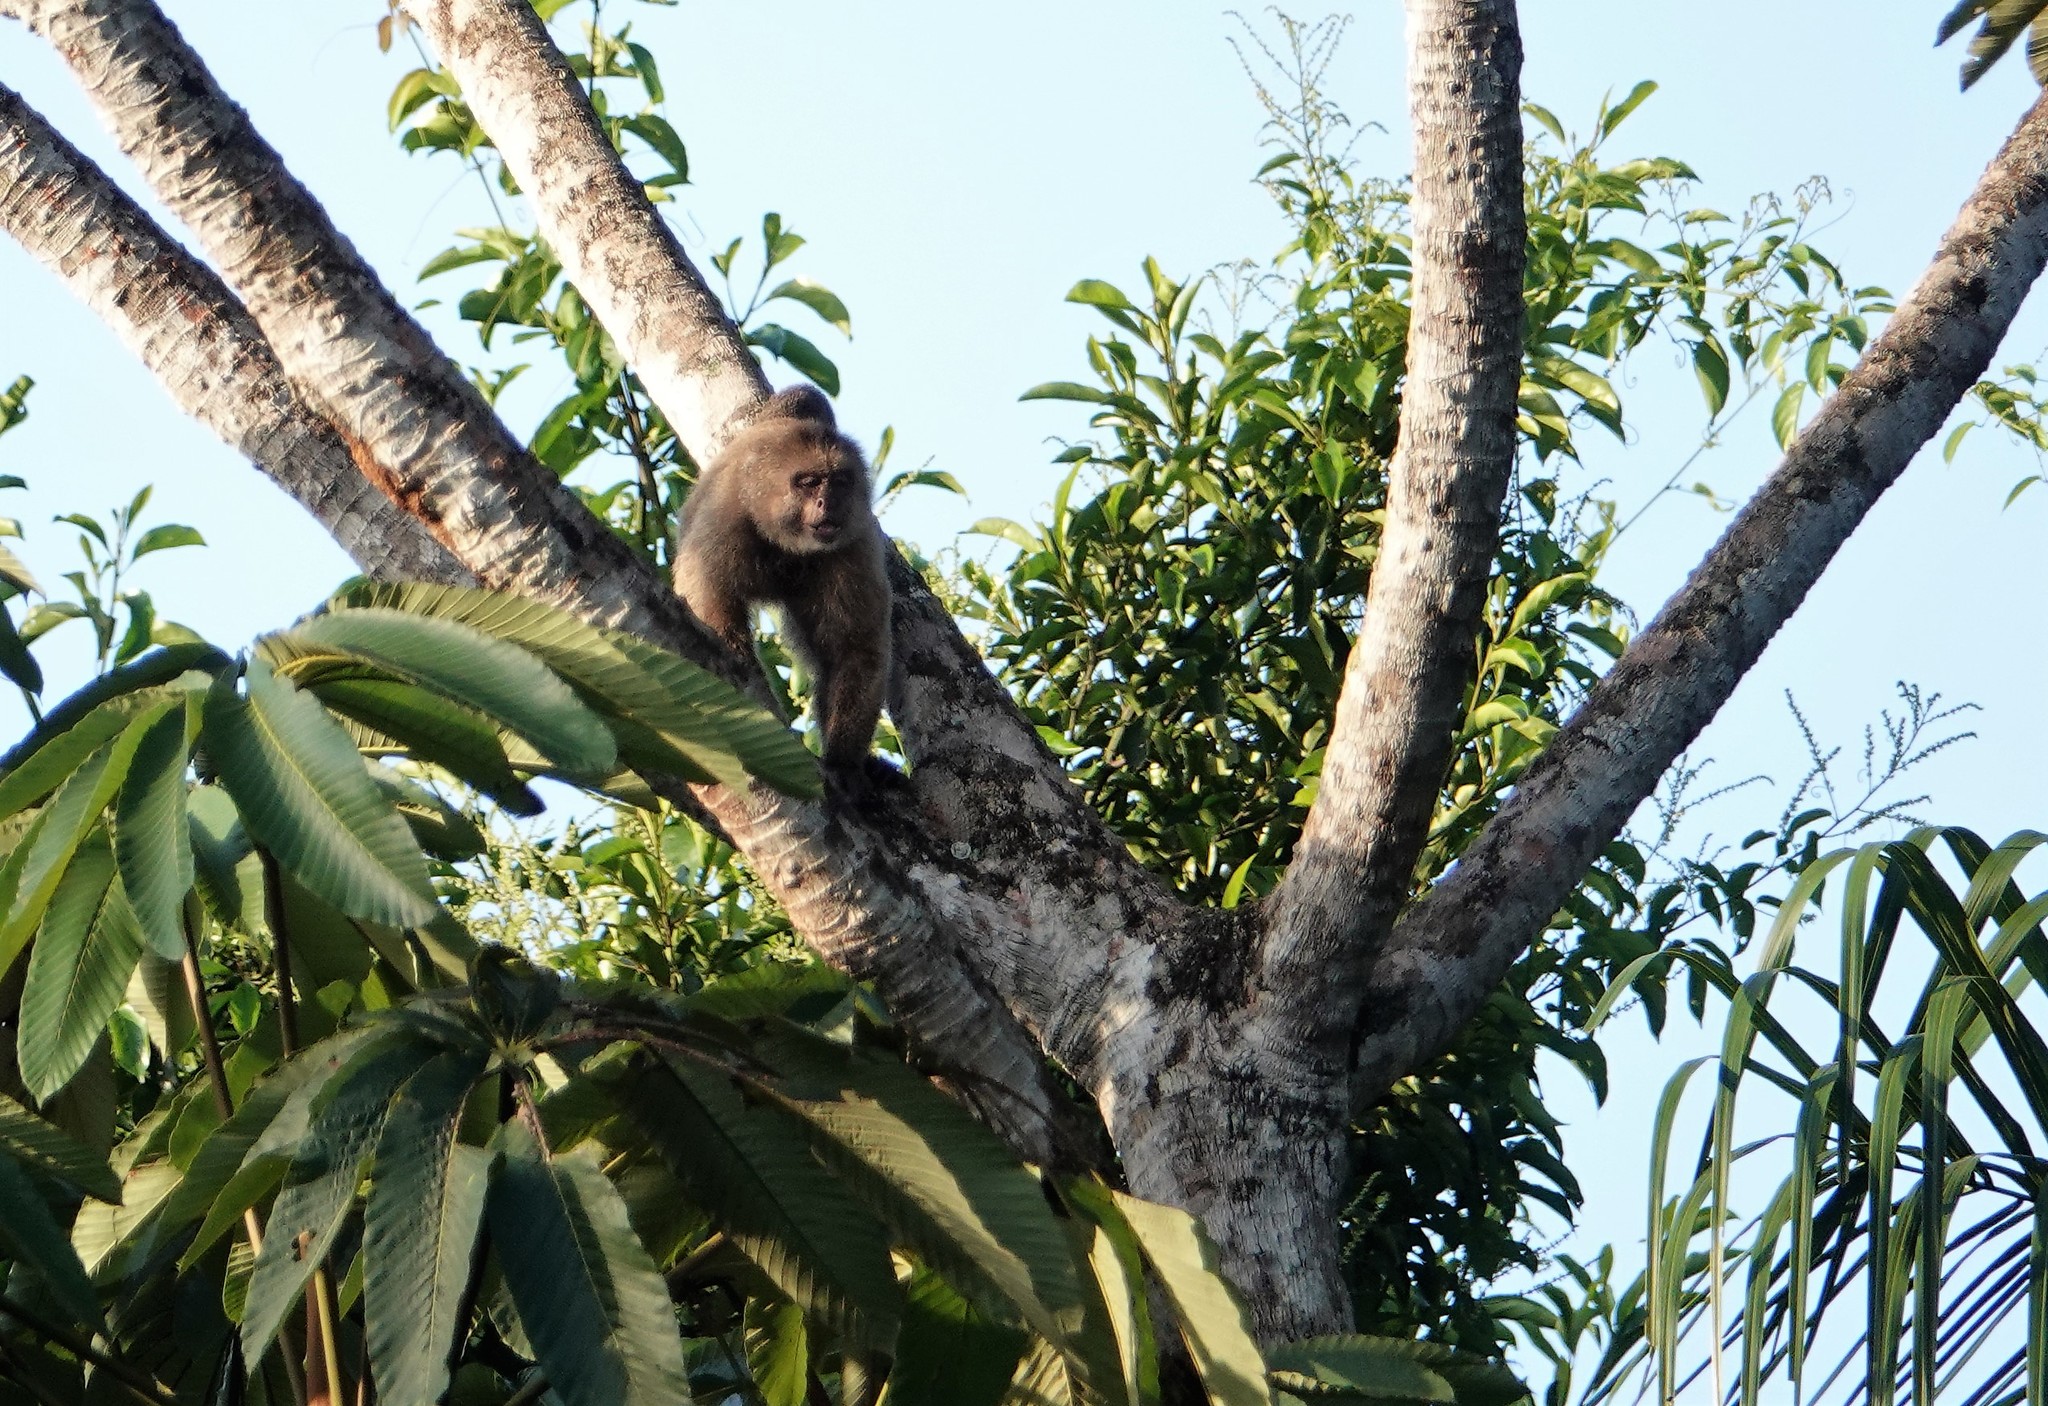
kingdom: Animalia
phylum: Chordata
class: Mammalia
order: Primates
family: Cebidae
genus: Cebus
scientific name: Cebus olivaceus
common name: Weeper capuchin
